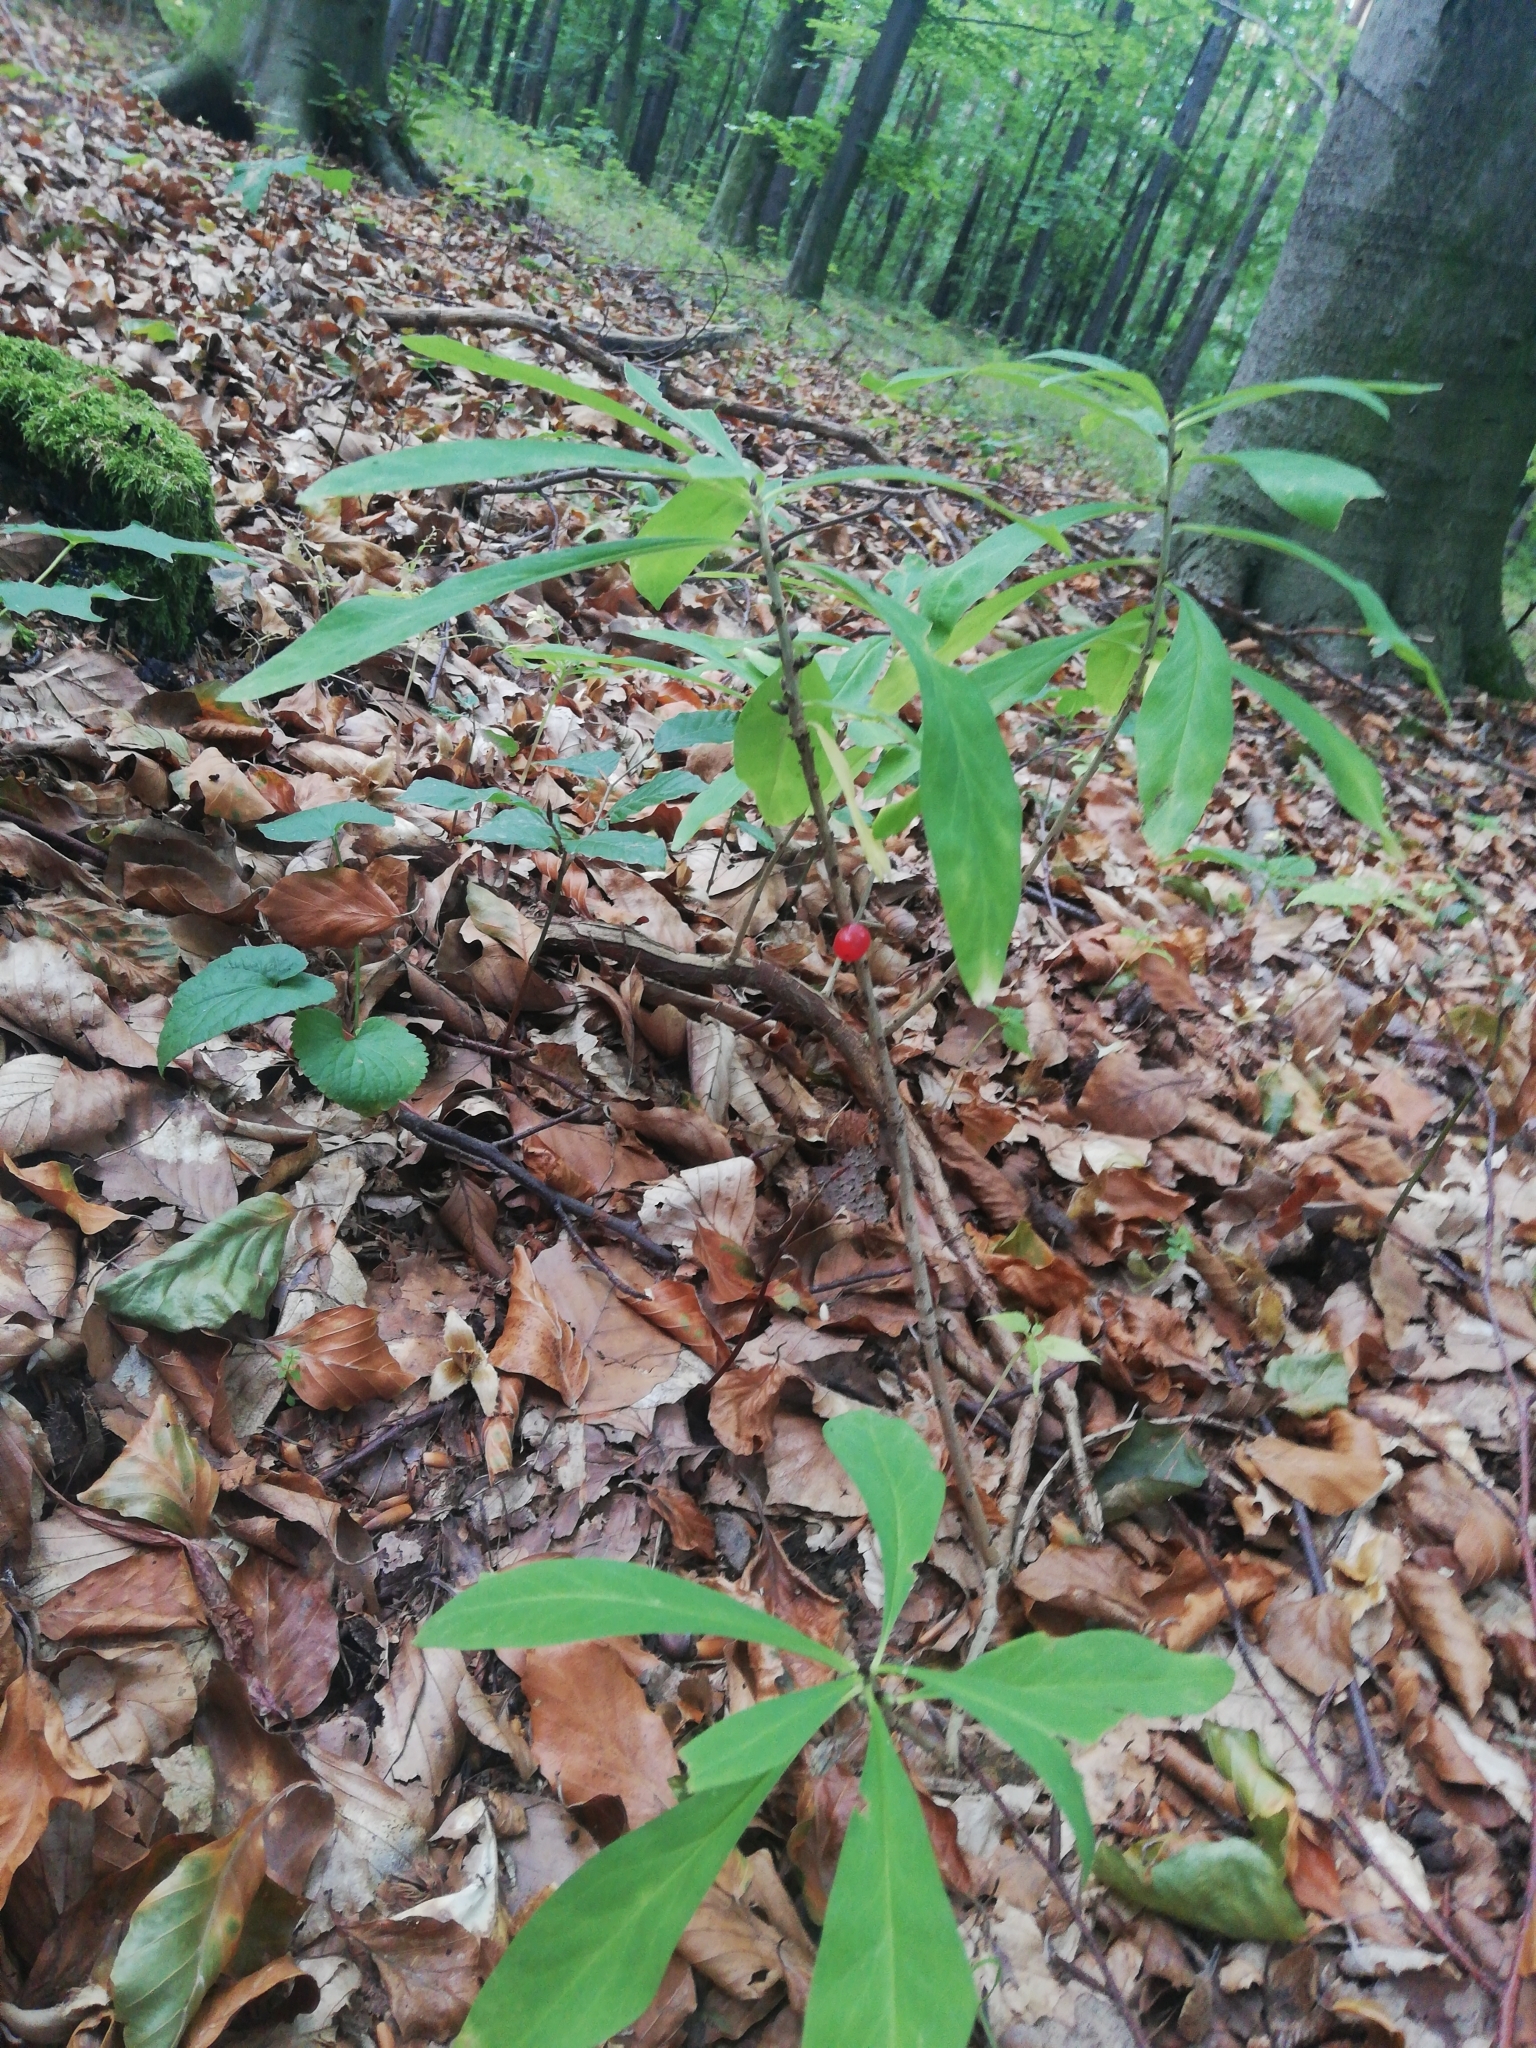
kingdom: Plantae
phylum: Tracheophyta
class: Magnoliopsida
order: Malvales
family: Thymelaeaceae
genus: Daphne
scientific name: Daphne mezereum
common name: Mezereon
